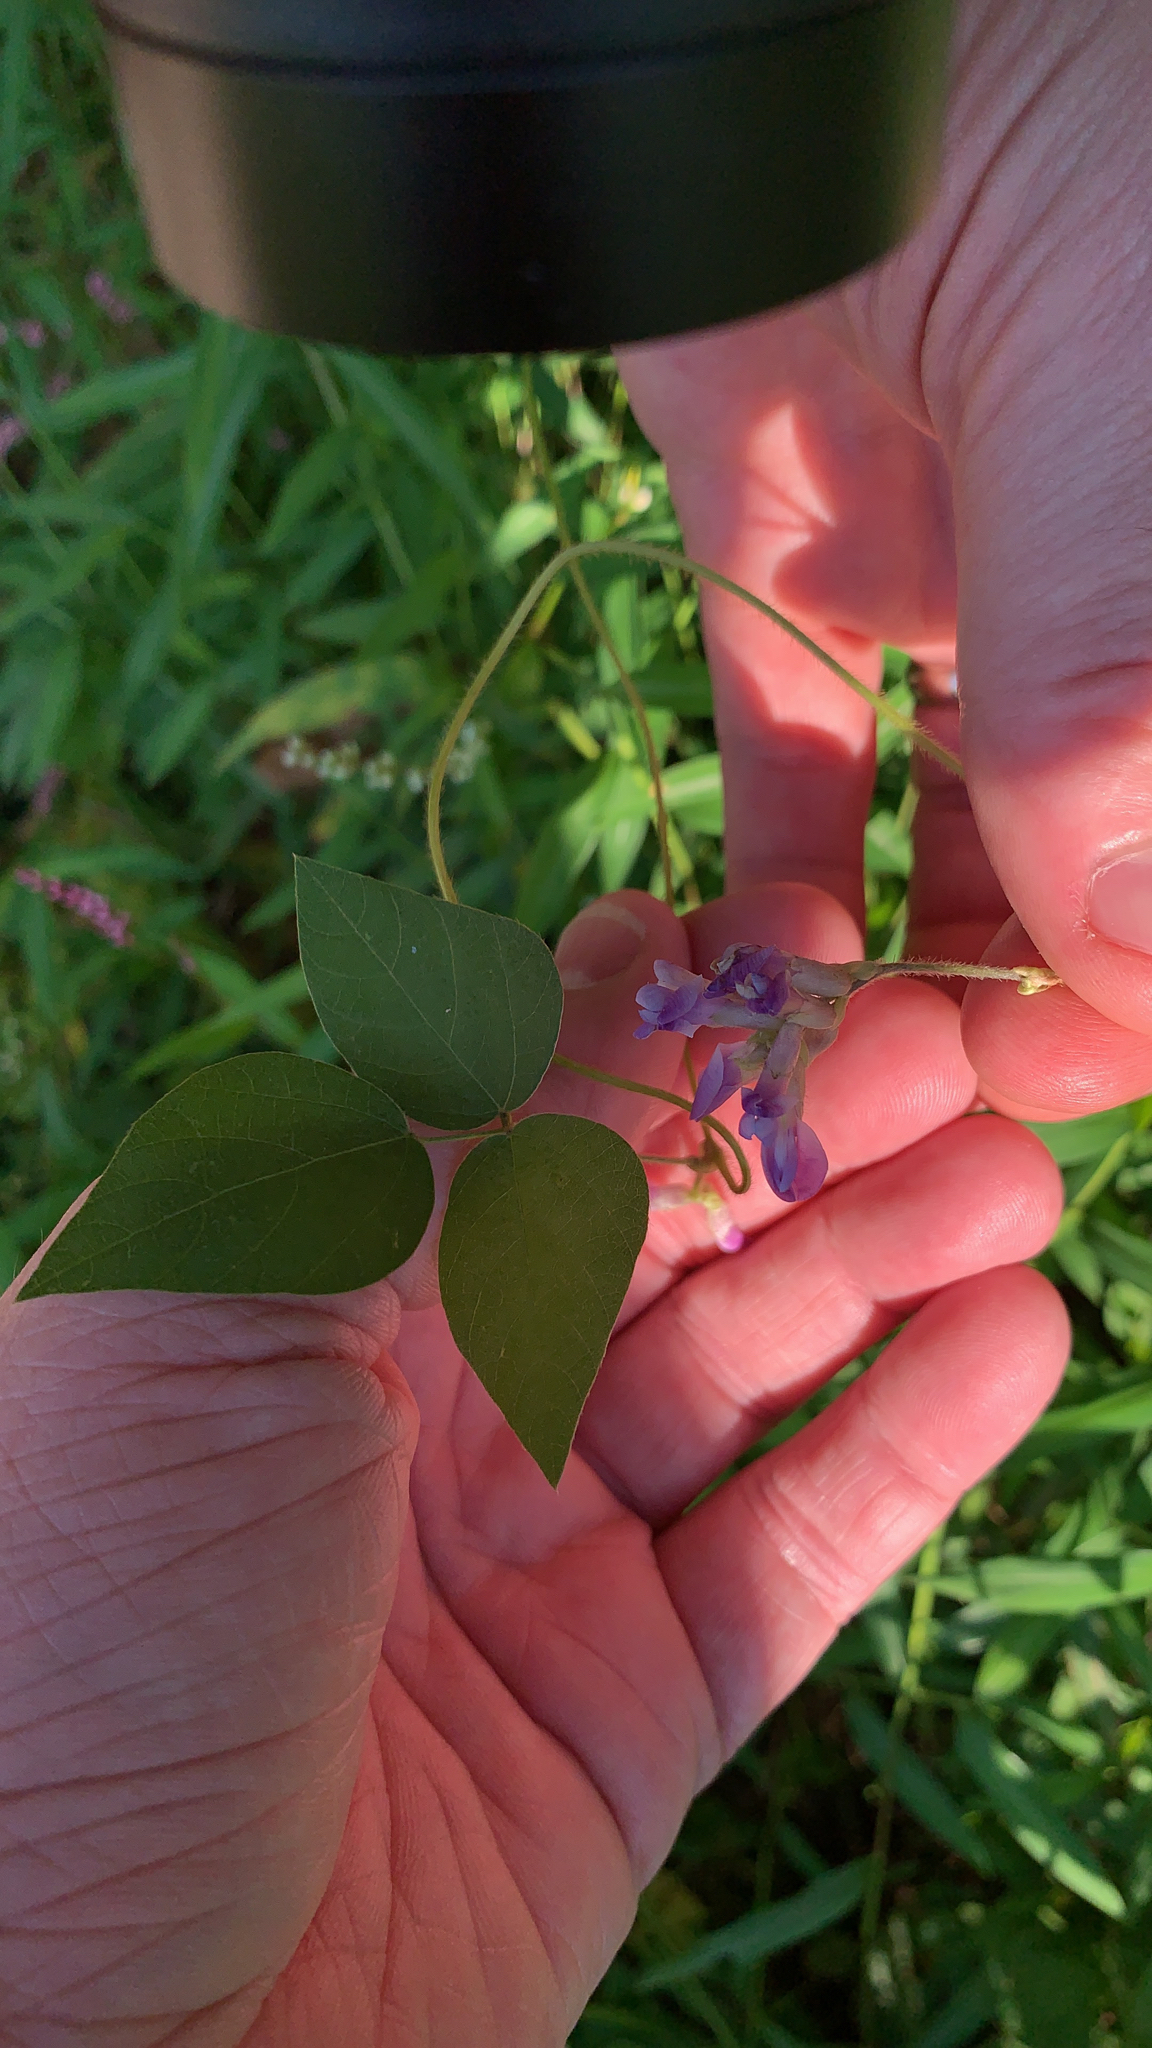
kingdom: Plantae
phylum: Tracheophyta
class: Magnoliopsida
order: Fabales
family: Fabaceae
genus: Amphicarpaea
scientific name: Amphicarpaea bracteata
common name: American hog peanut
